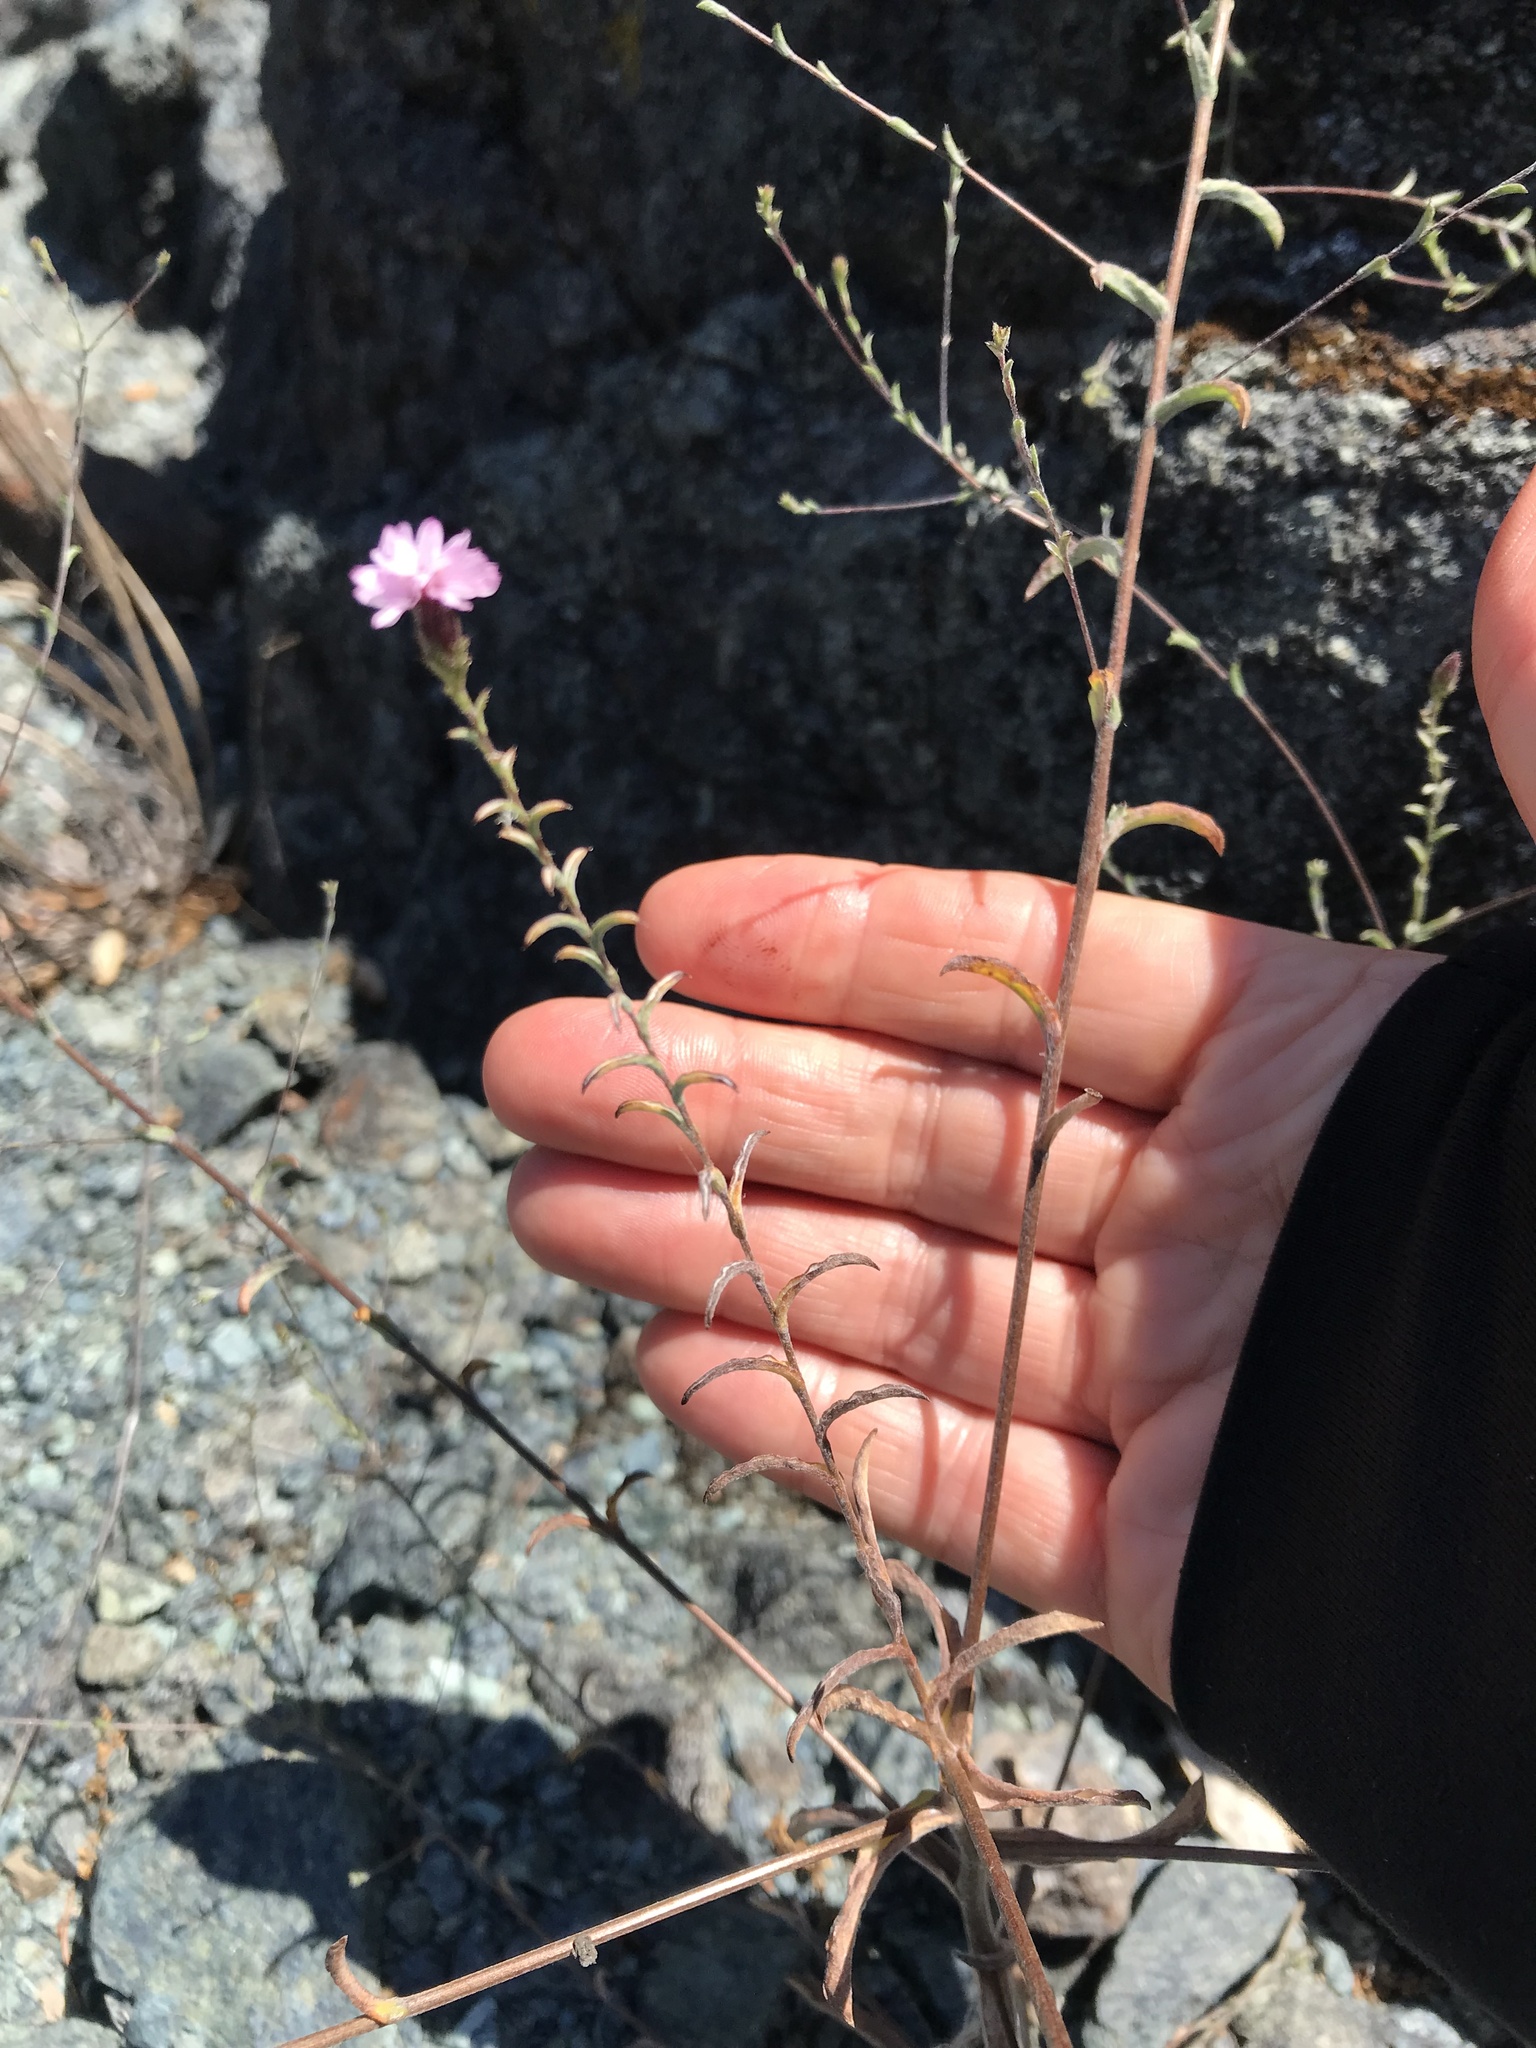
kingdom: Plantae
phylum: Tracheophyta
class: Magnoliopsida
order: Asterales
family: Asteraceae
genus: Lessingia
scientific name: Lessingia micradenia
